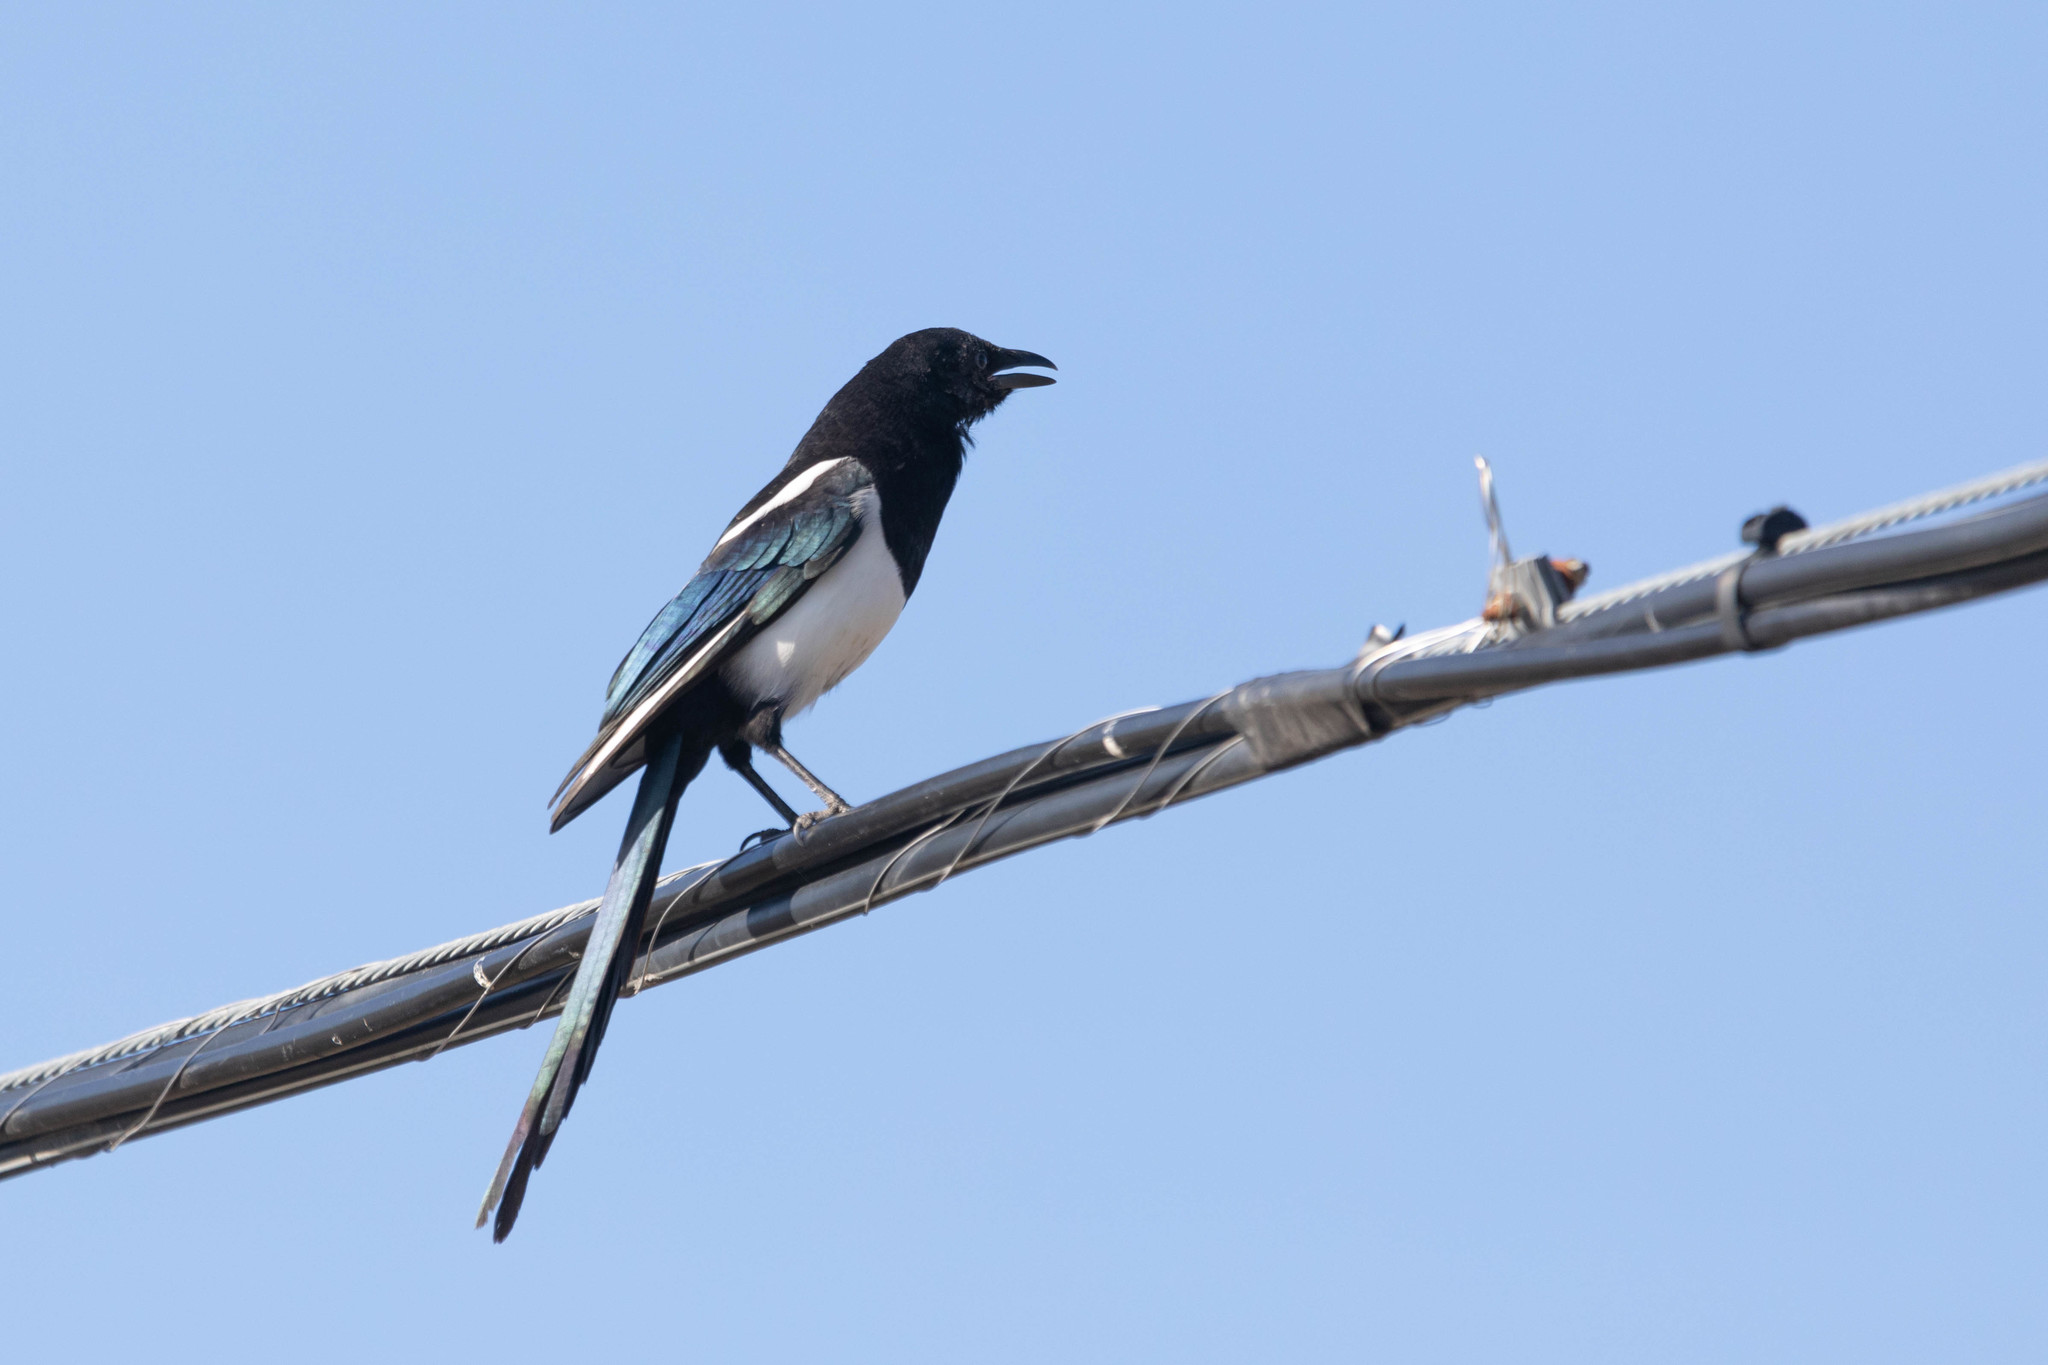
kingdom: Animalia
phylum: Chordata
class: Aves
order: Passeriformes
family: Corvidae
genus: Pica
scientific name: Pica hudsonia
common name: Black-billed magpie
